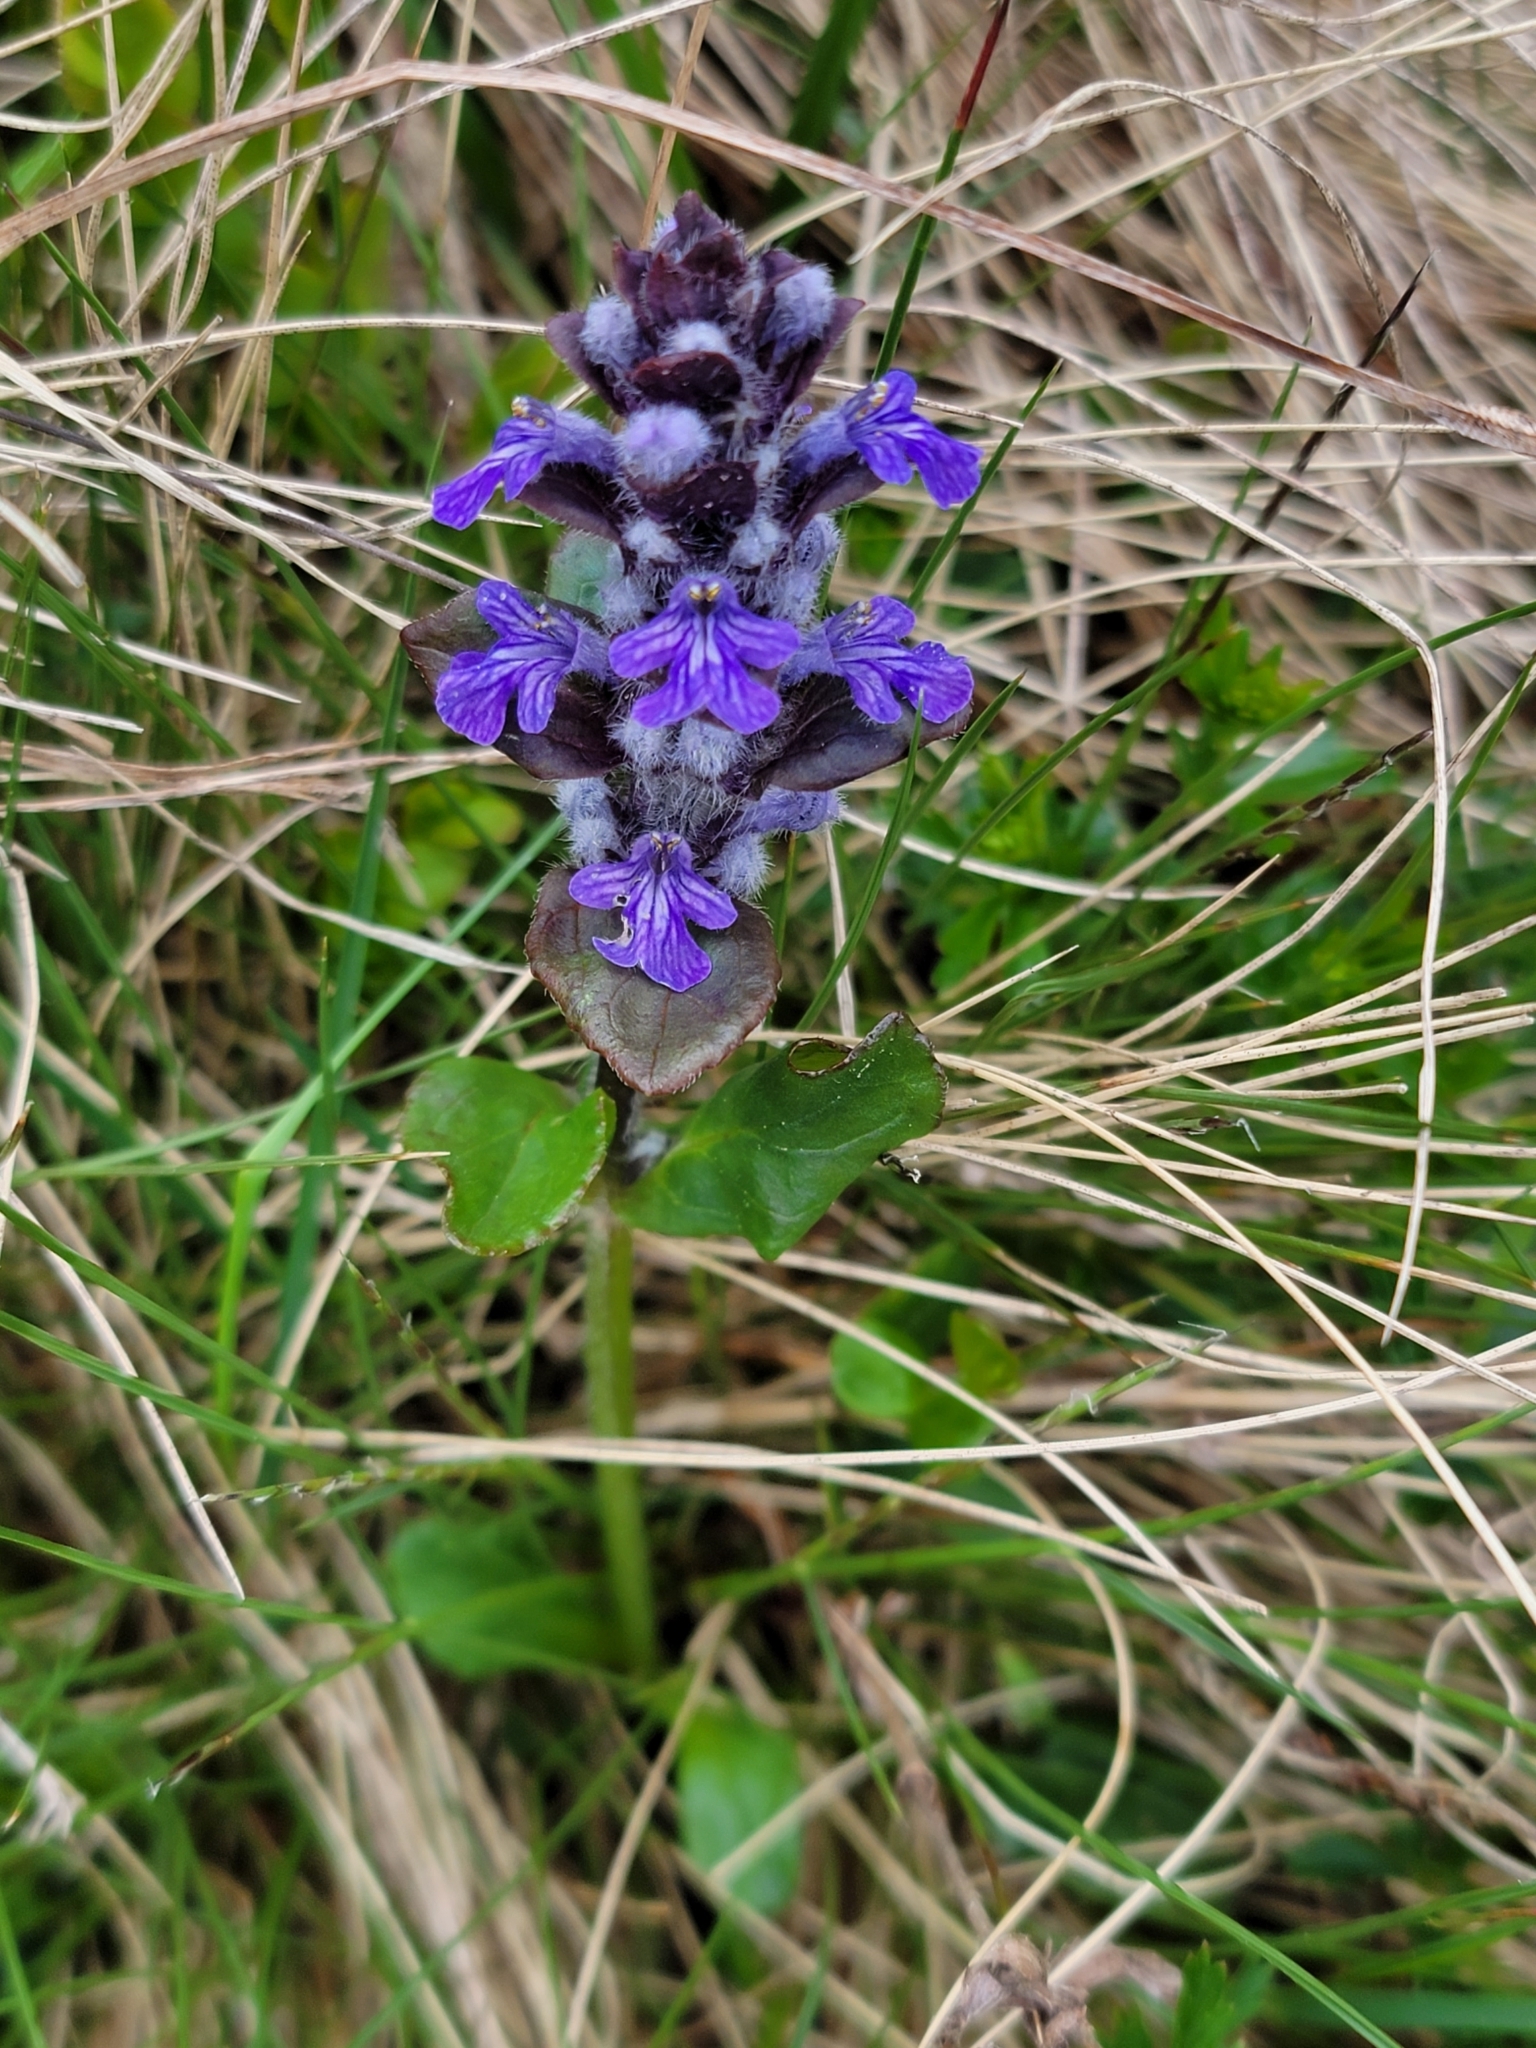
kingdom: Plantae
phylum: Tracheophyta
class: Magnoliopsida
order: Lamiales
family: Lamiaceae
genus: Ajuga
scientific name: Ajuga reptans
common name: Bugle
